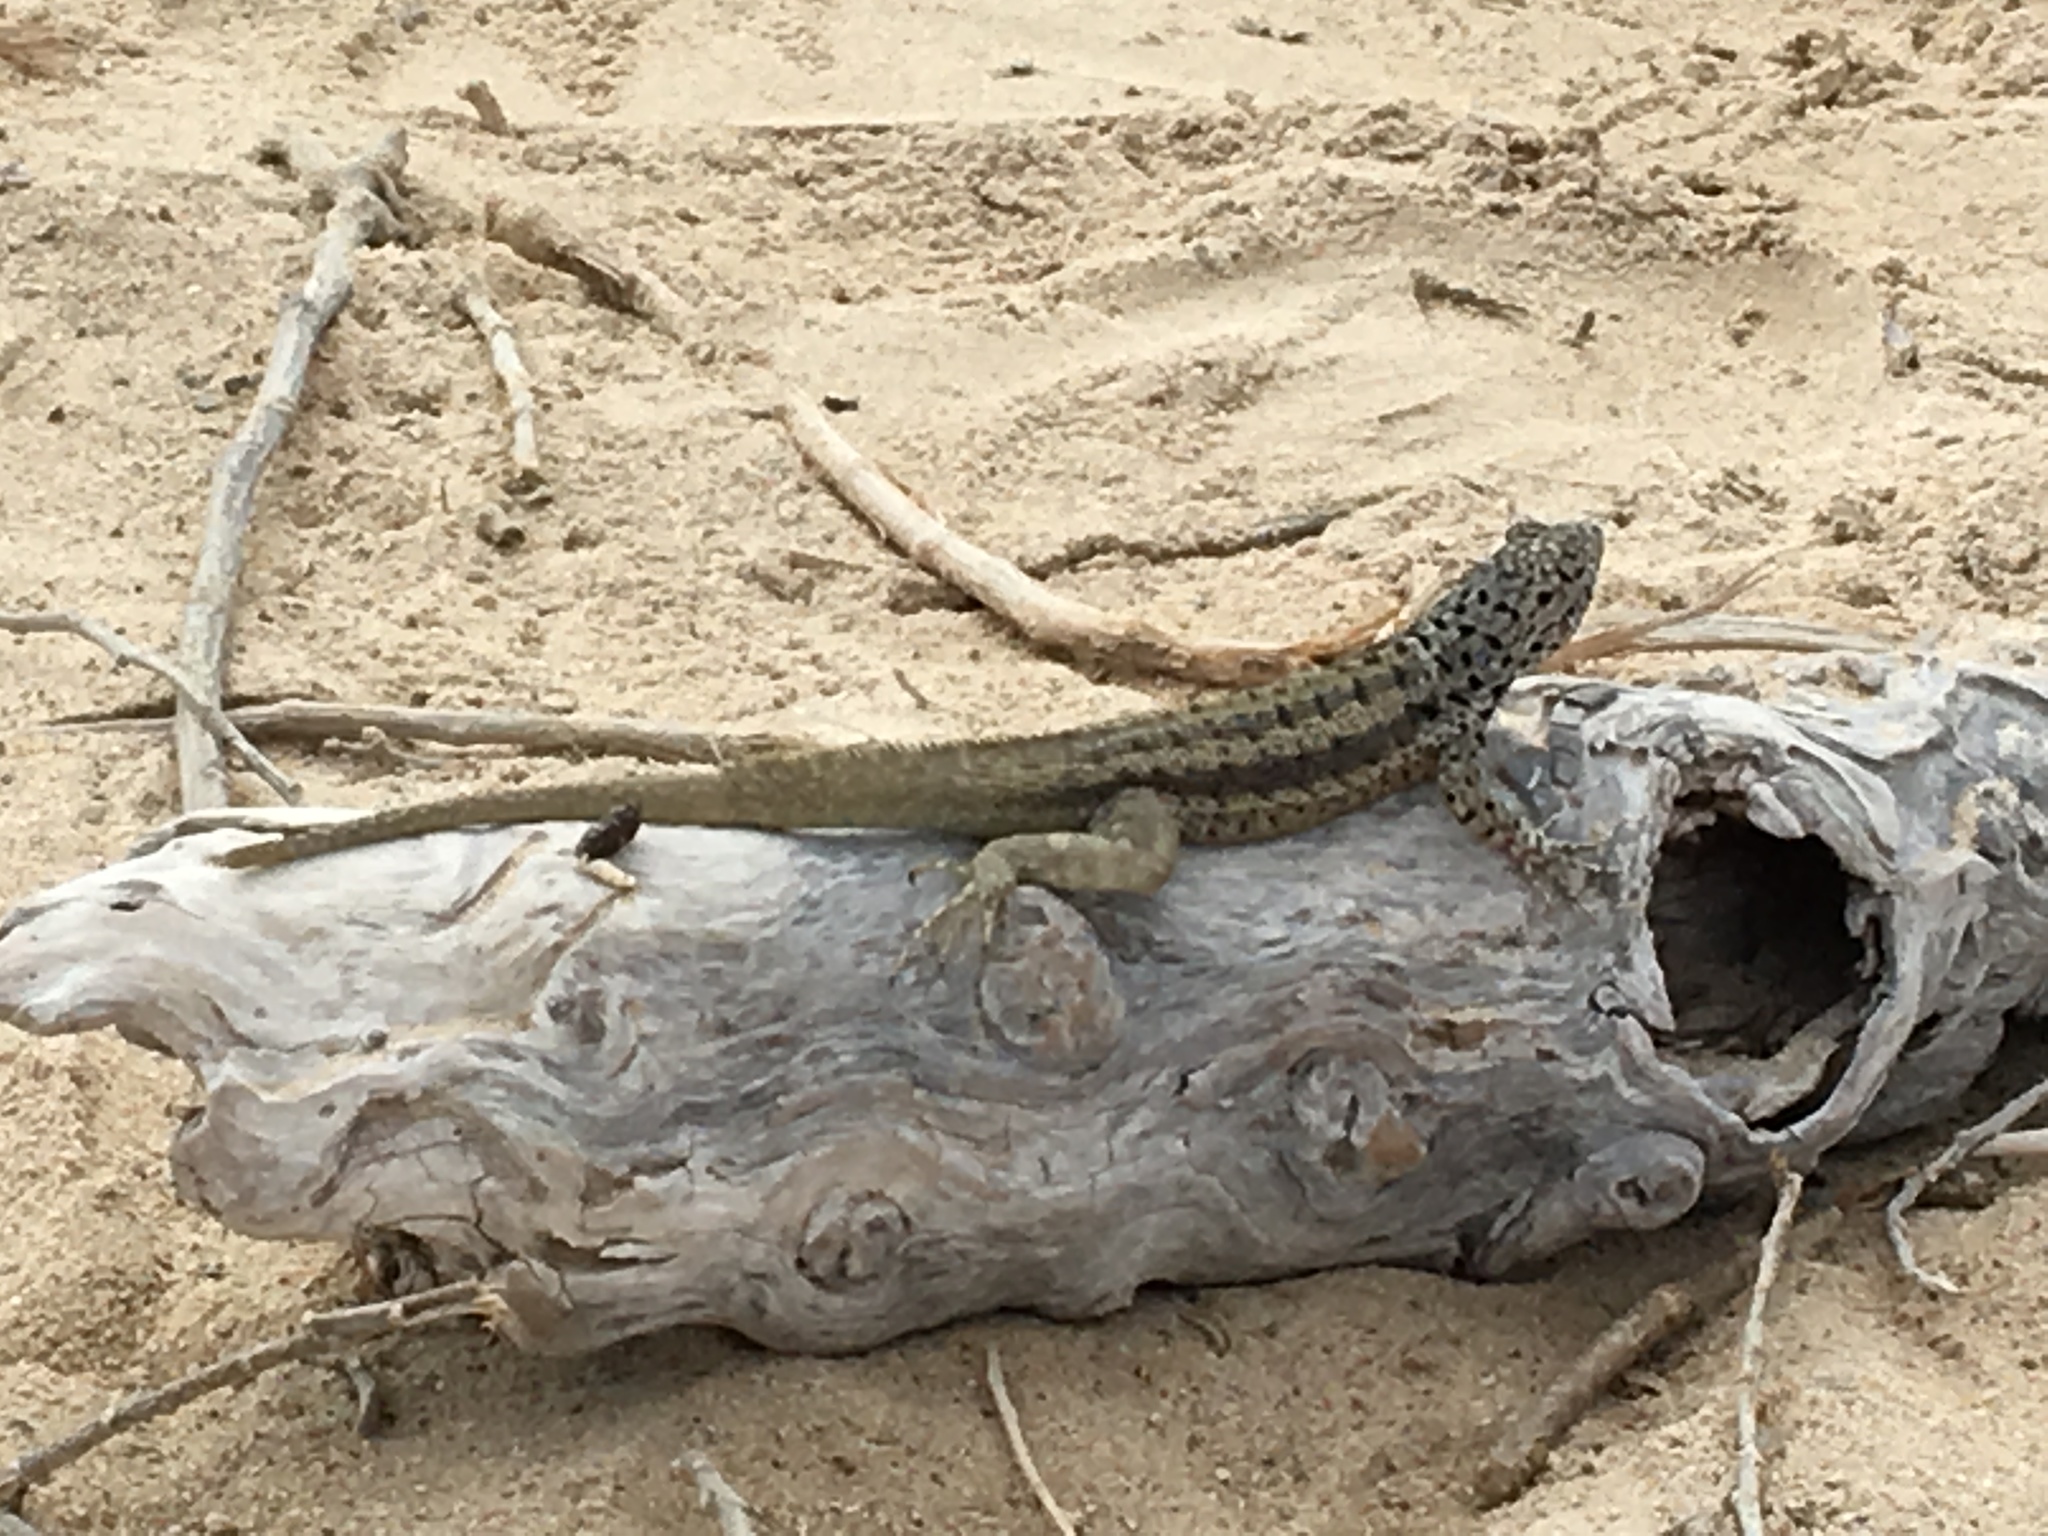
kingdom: Animalia
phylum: Chordata
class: Squamata
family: Tropiduridae
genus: Microlophus
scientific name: Microlophus barringtonensis
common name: Galapagos lava lizard
